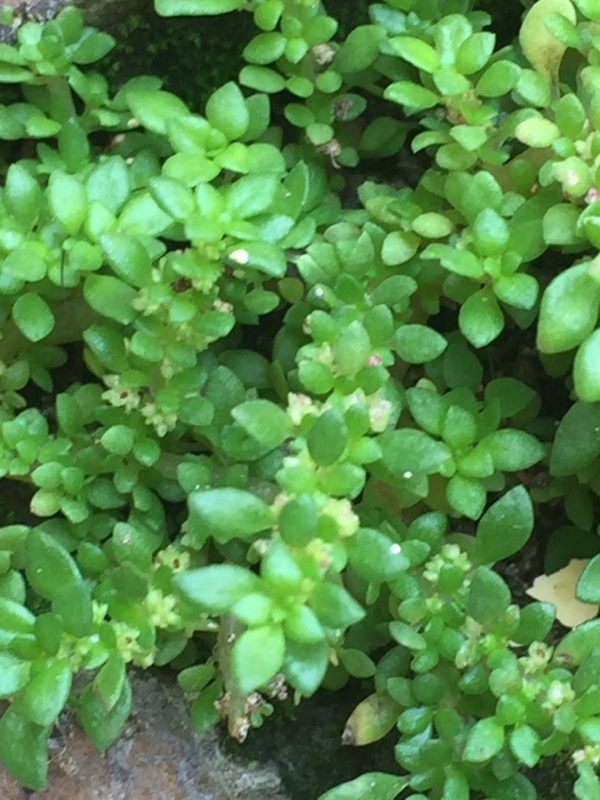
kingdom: Plantae
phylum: Tracheophyta
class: Magnoliopsida
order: Rosales
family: Urticaceae
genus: Pilea
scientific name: Pilea microphylla
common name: Artillery-plant
